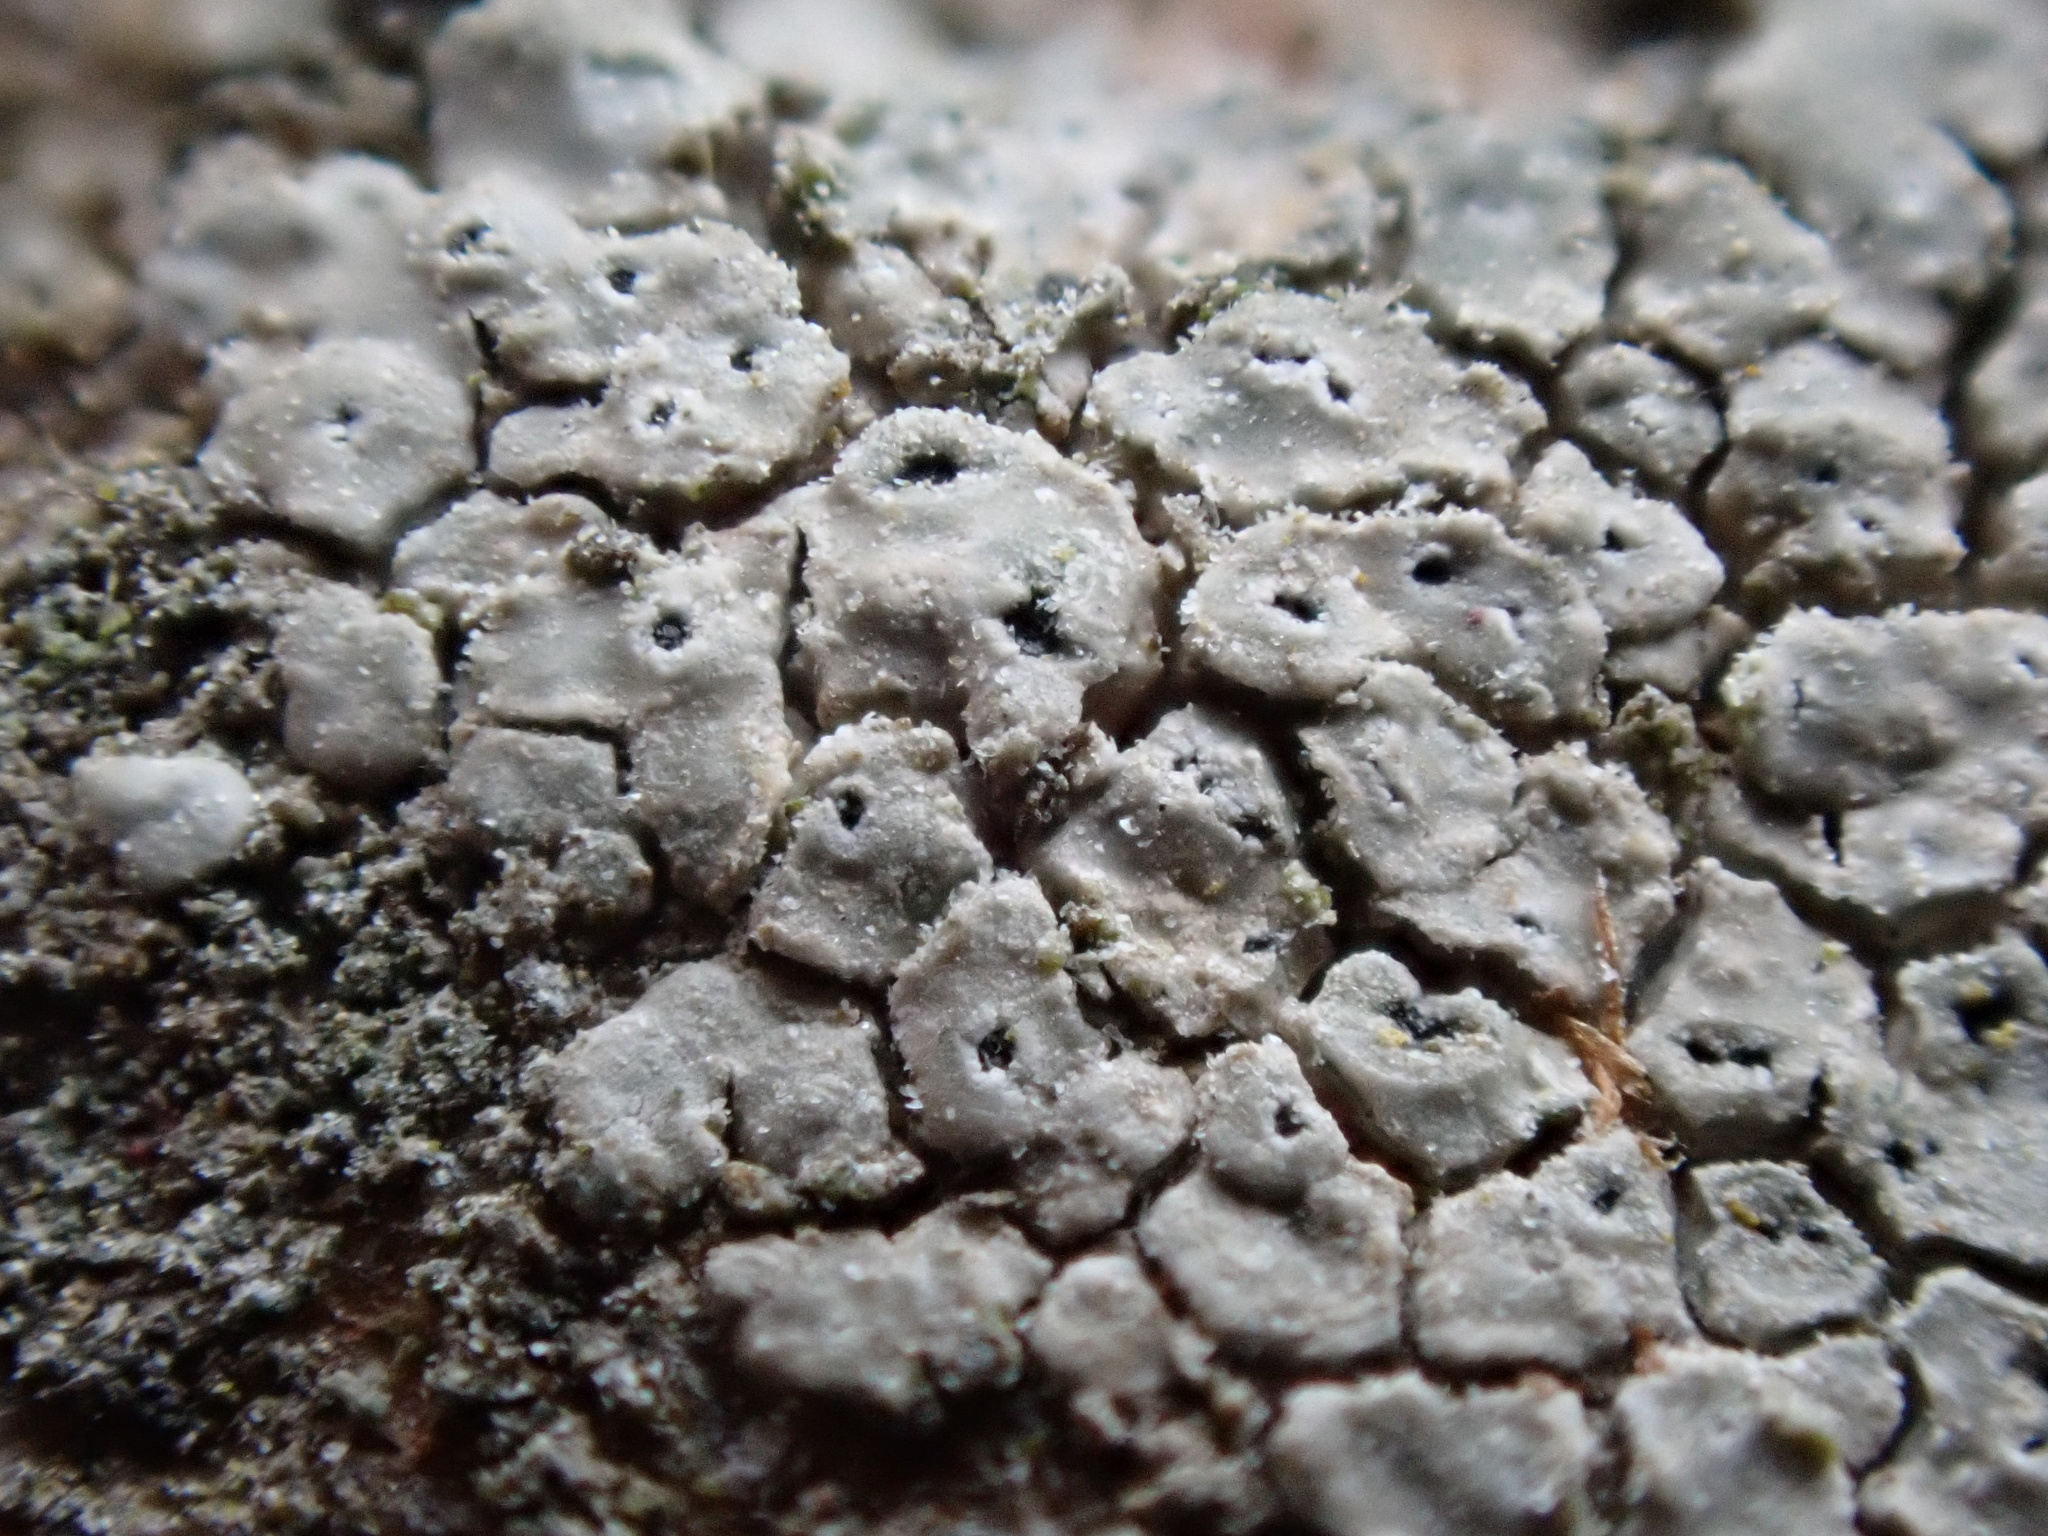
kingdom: Fungi
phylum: Ascomycota
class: Lecanoromycetes
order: Pertusariales
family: Megasporaceae
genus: Circinaria
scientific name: Circinaria caesiocinerea
